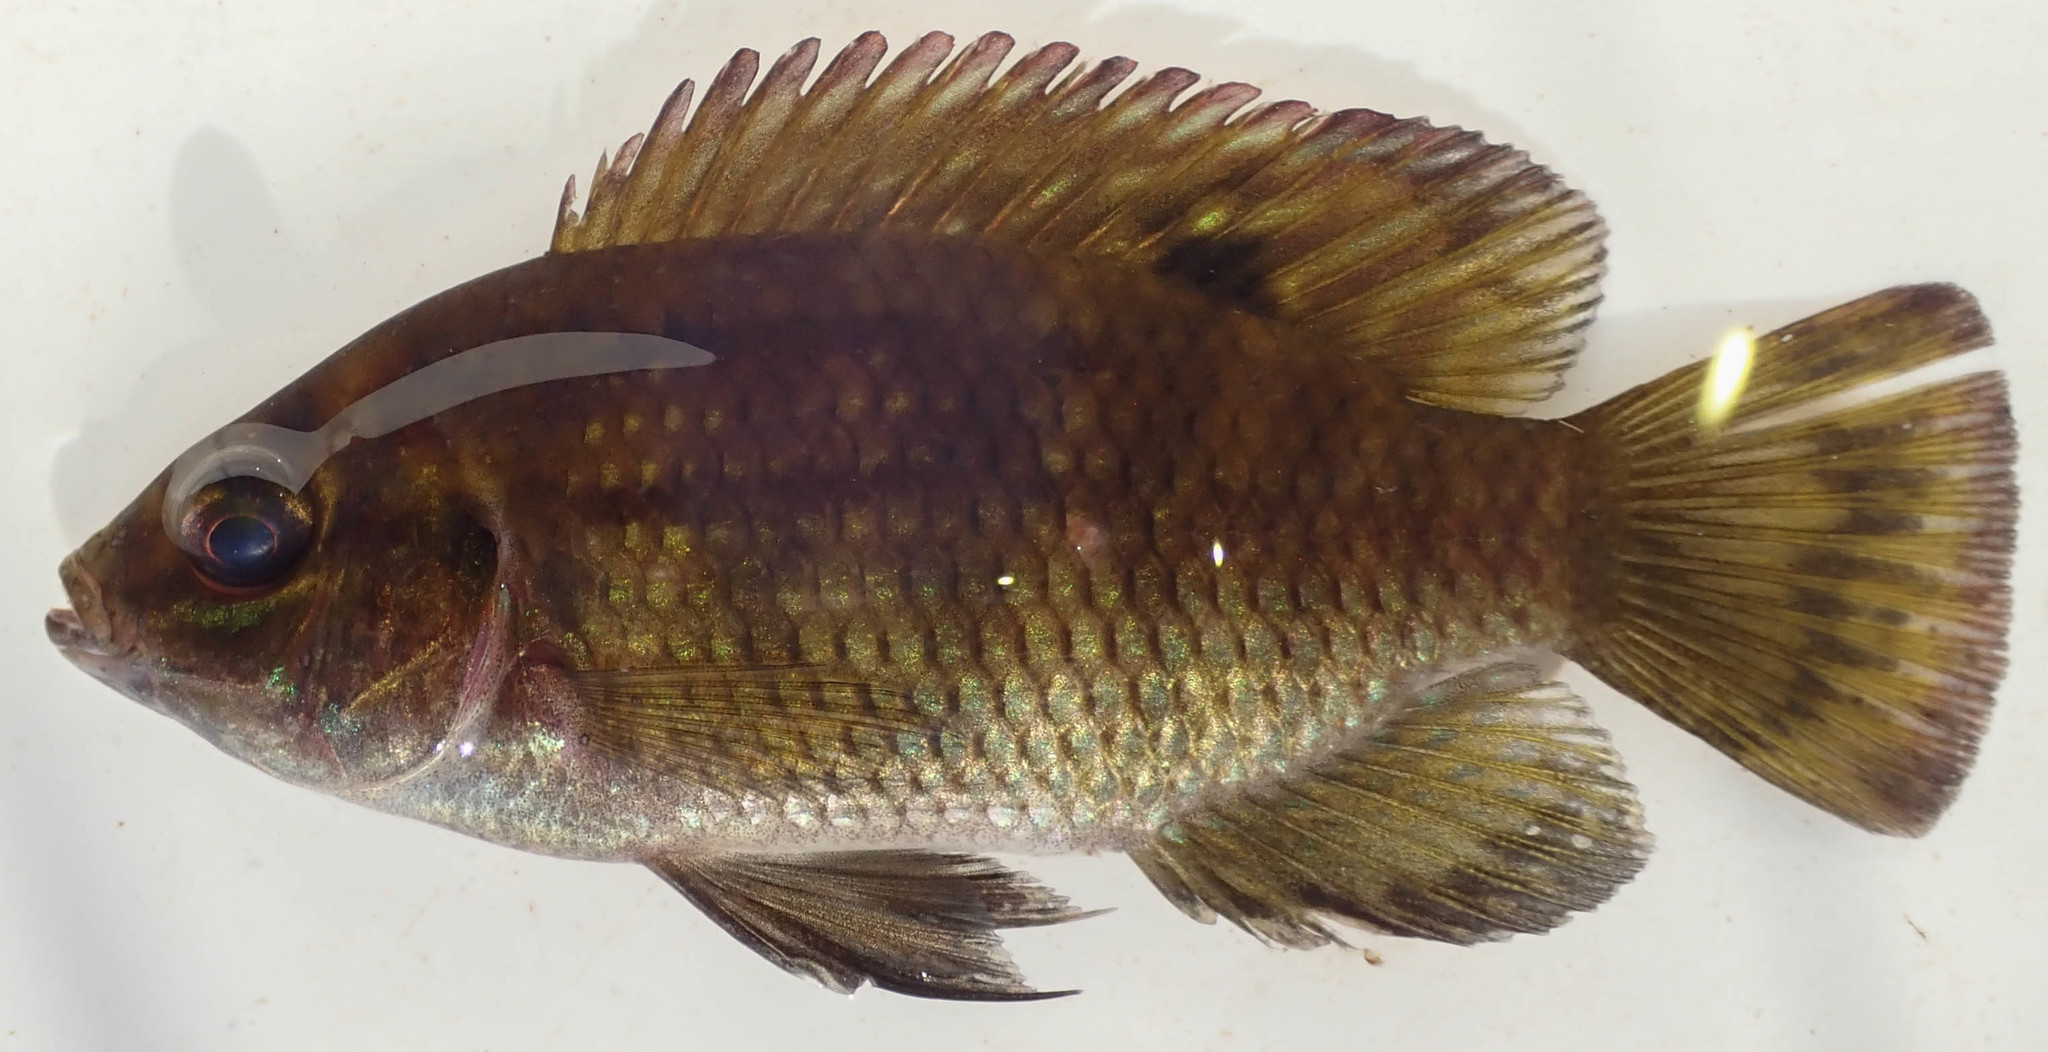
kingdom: Animalia
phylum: Chordata
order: Perciformes
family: Cichlidae
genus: Tilapia
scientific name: Tilapia sparrmanii
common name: Banded tilapia
